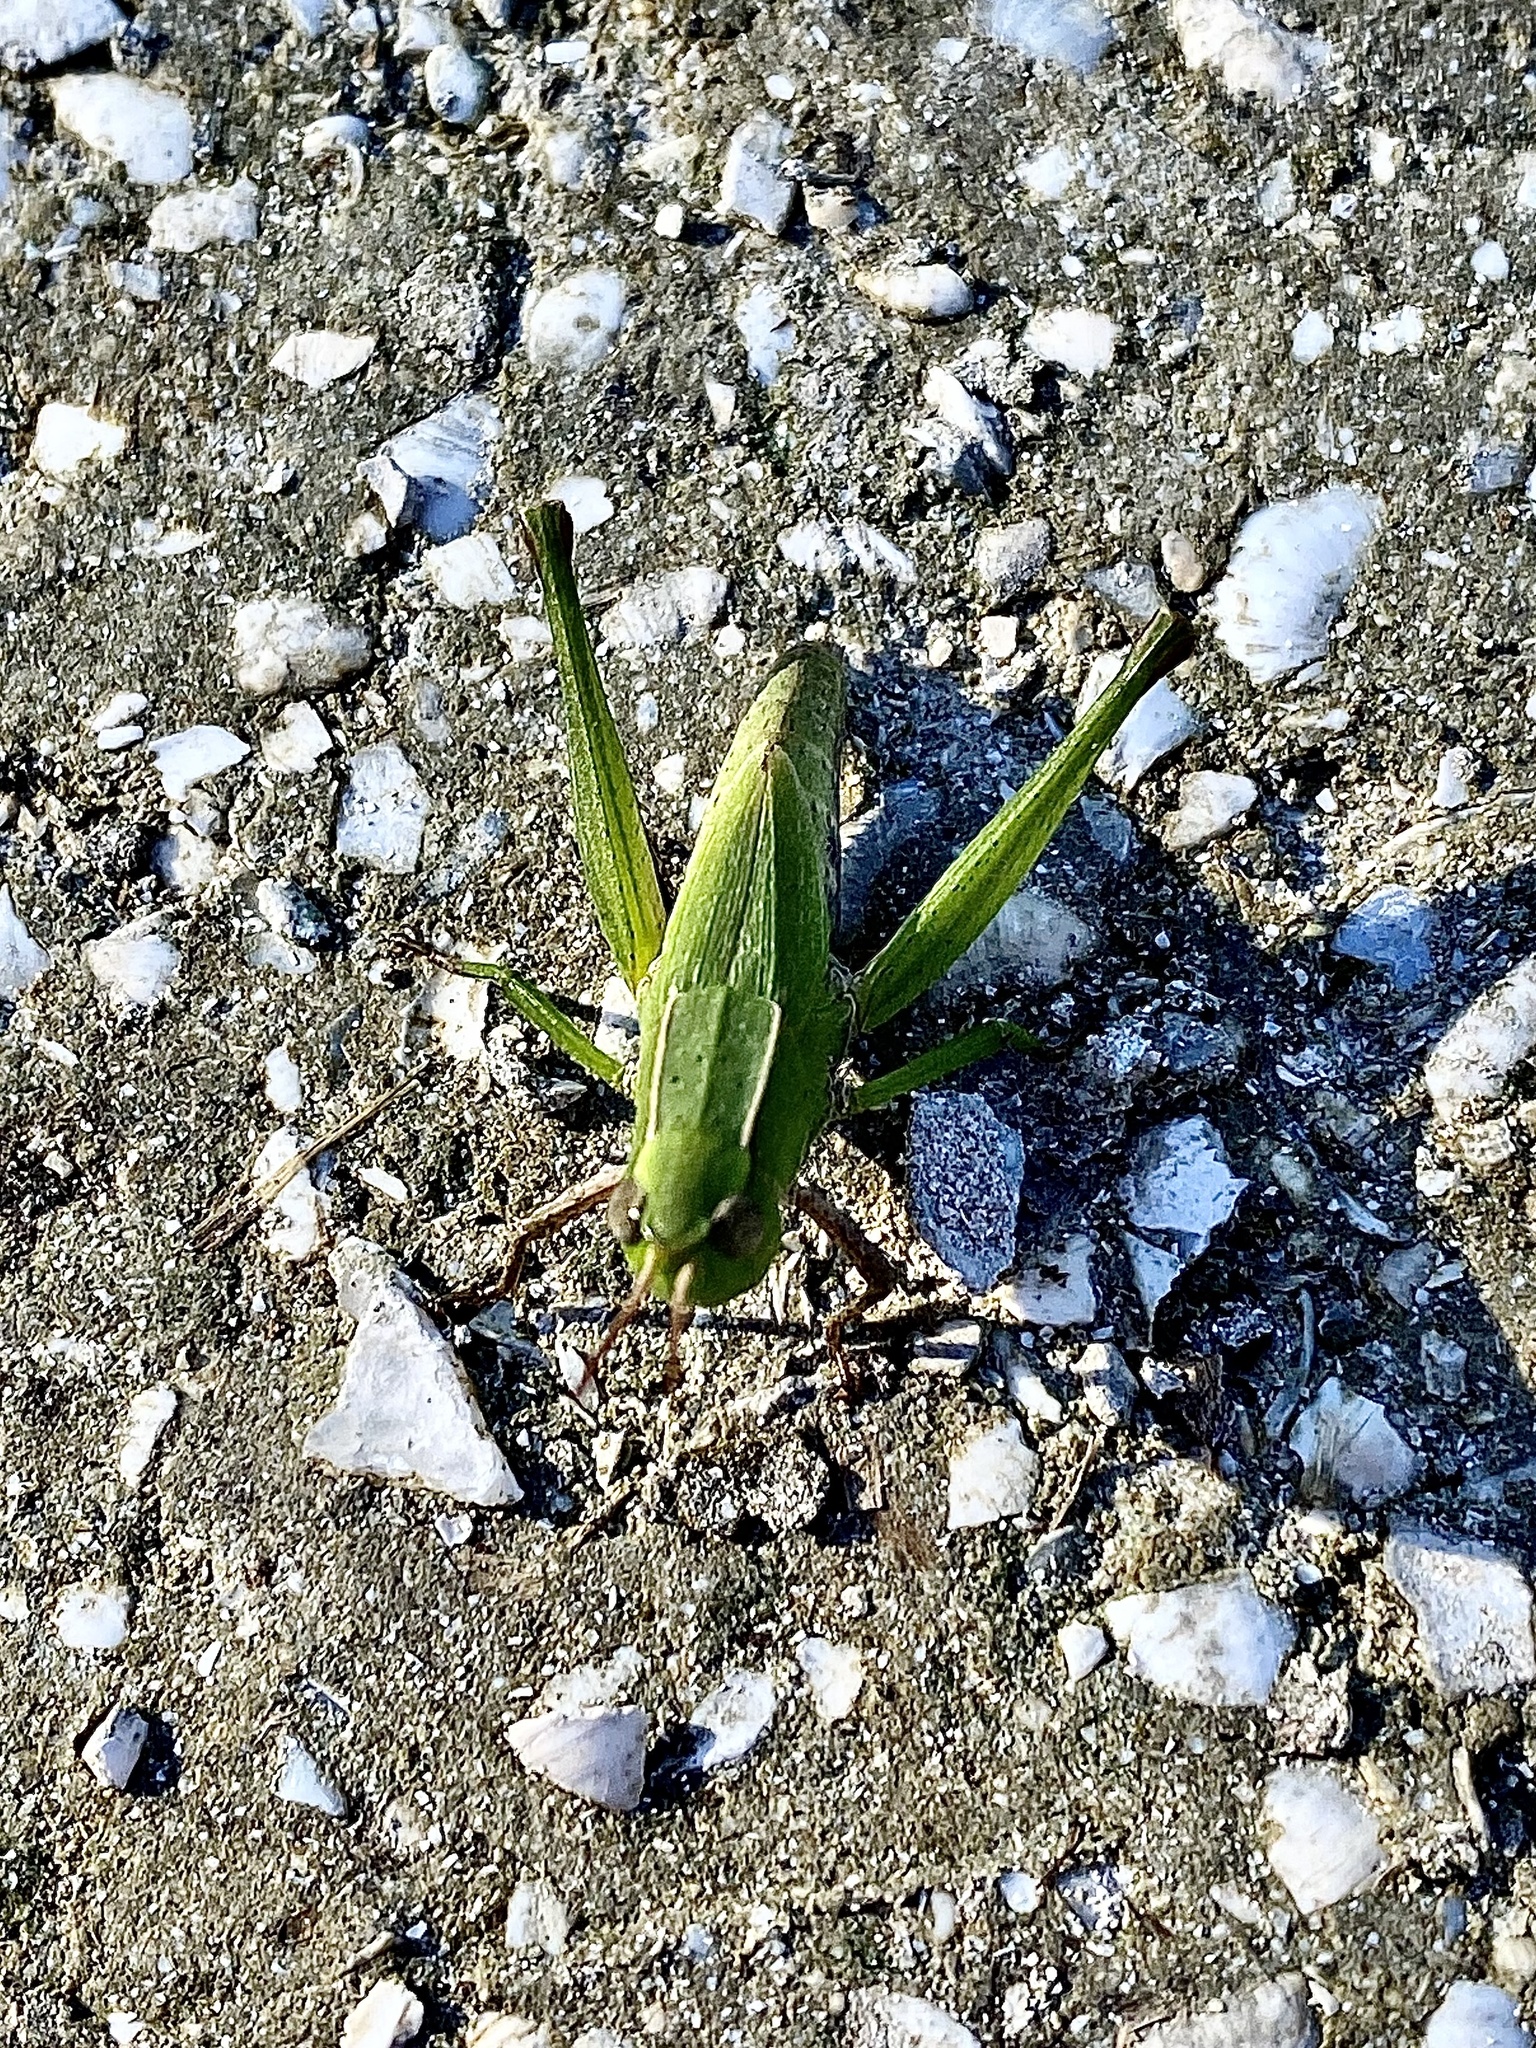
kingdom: Animalia
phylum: Arthropoda
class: Insecta
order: Orthoptera
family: Acrididae
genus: Dichromorpha
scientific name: Dichromorpha viridis
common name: Short-winged green grasshopper
